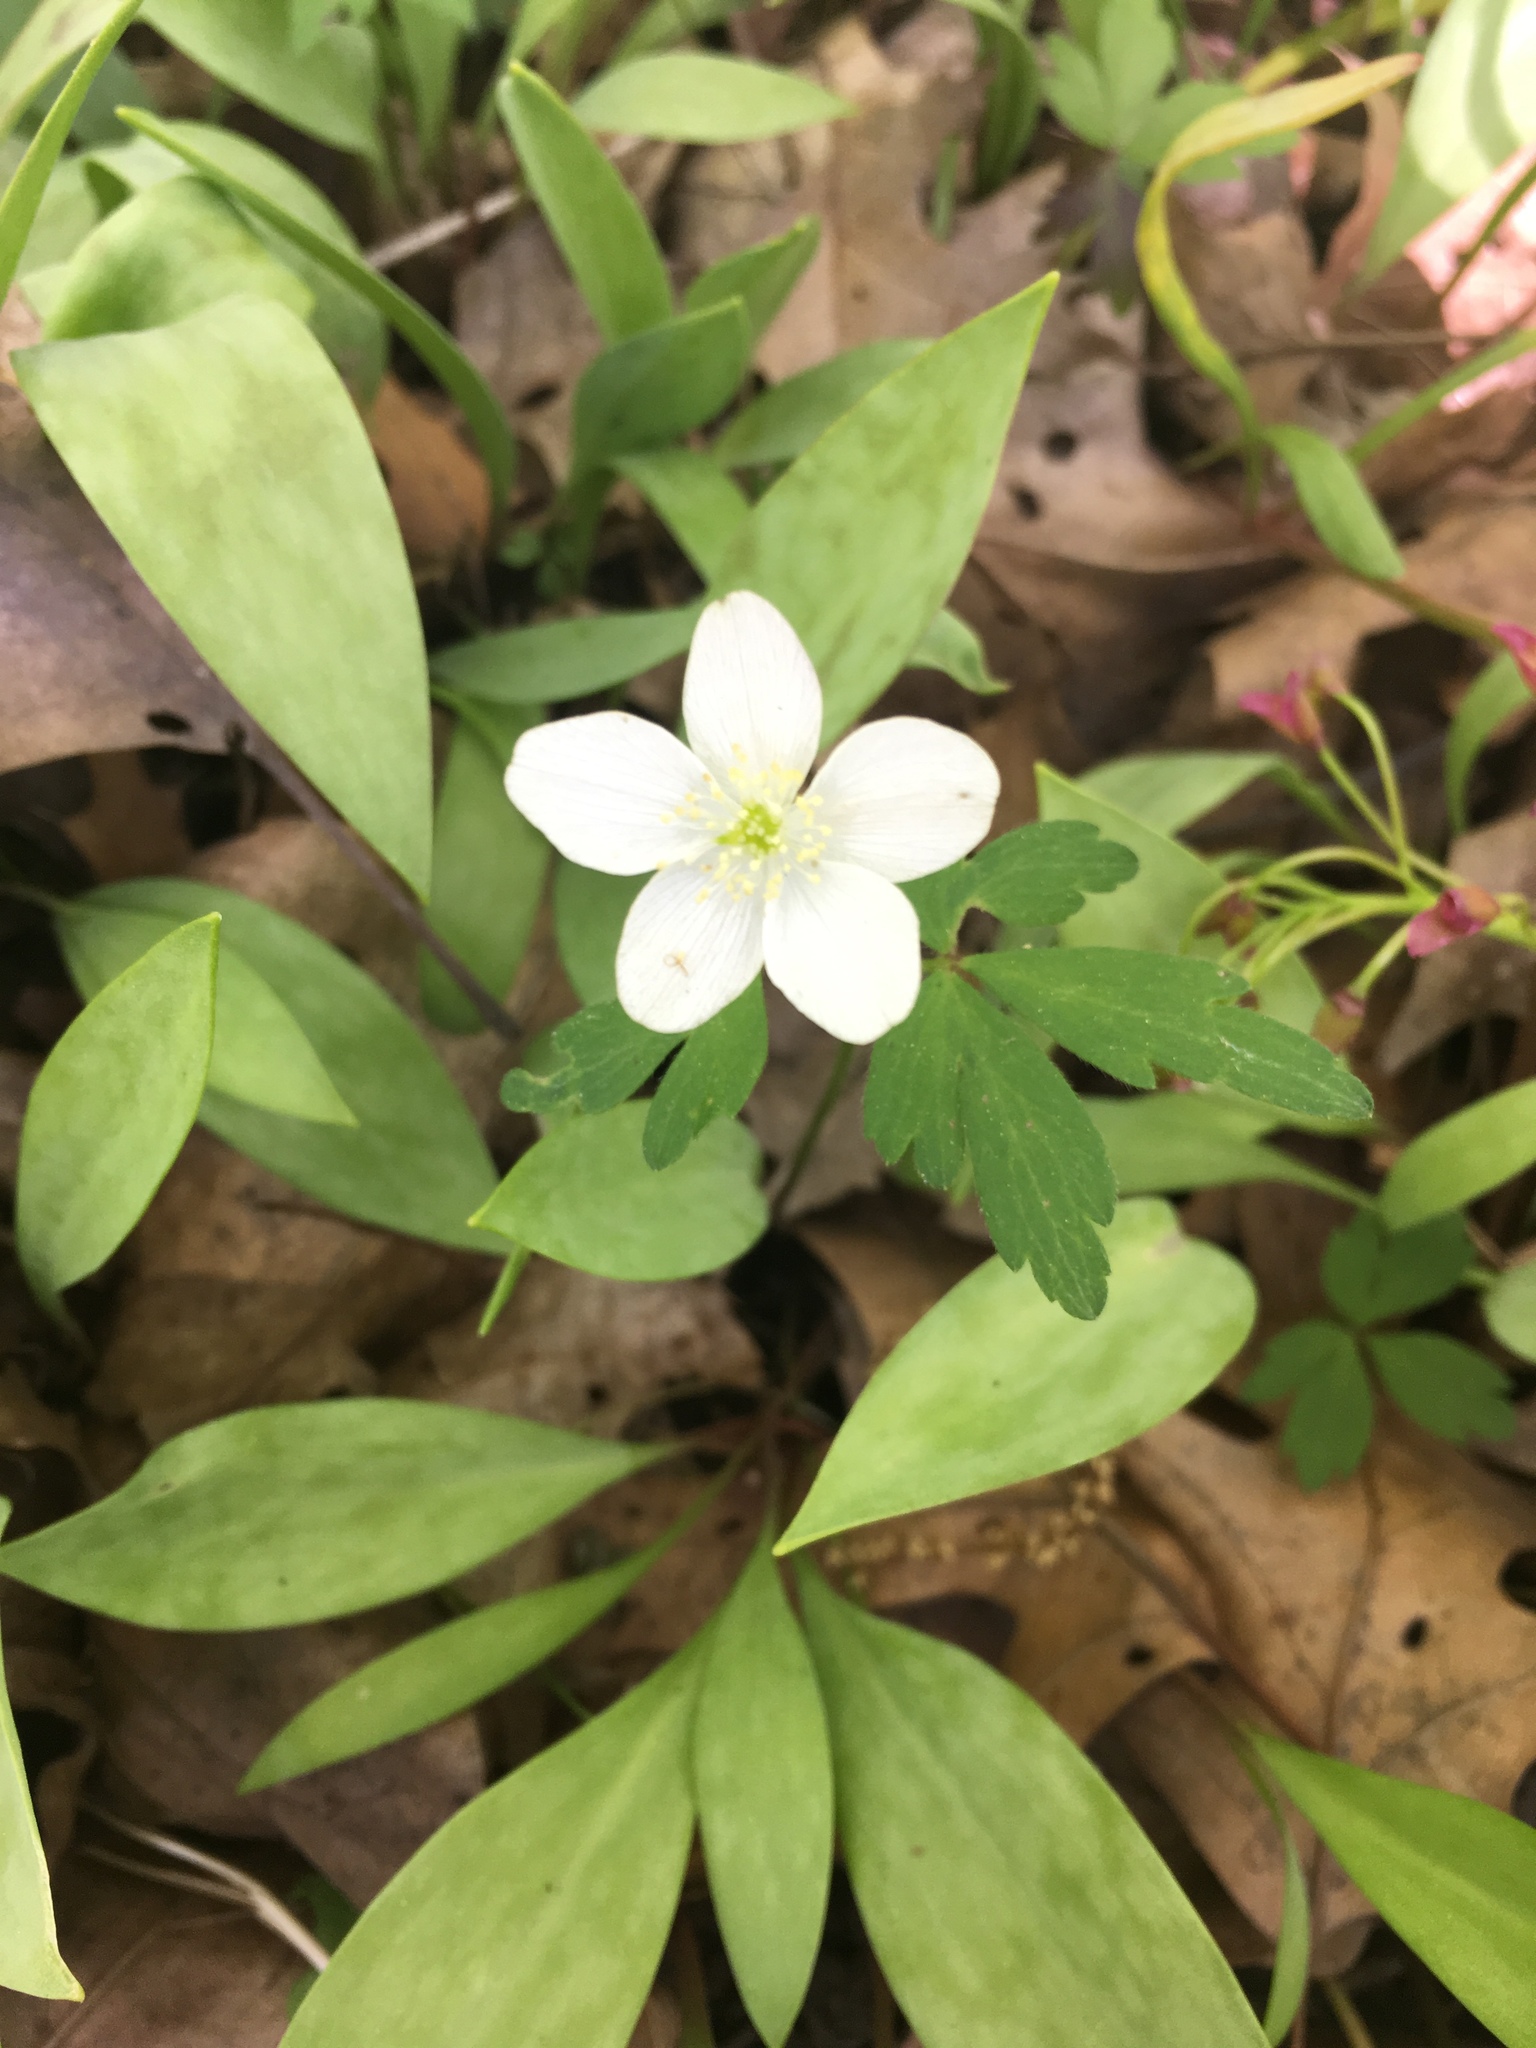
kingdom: Plantae
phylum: Tracheophyta
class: Magnoliopsida
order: Ranunculales
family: Ranunculaceae
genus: Anemone
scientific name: Anemone quinquefolia
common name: Wood anemone
